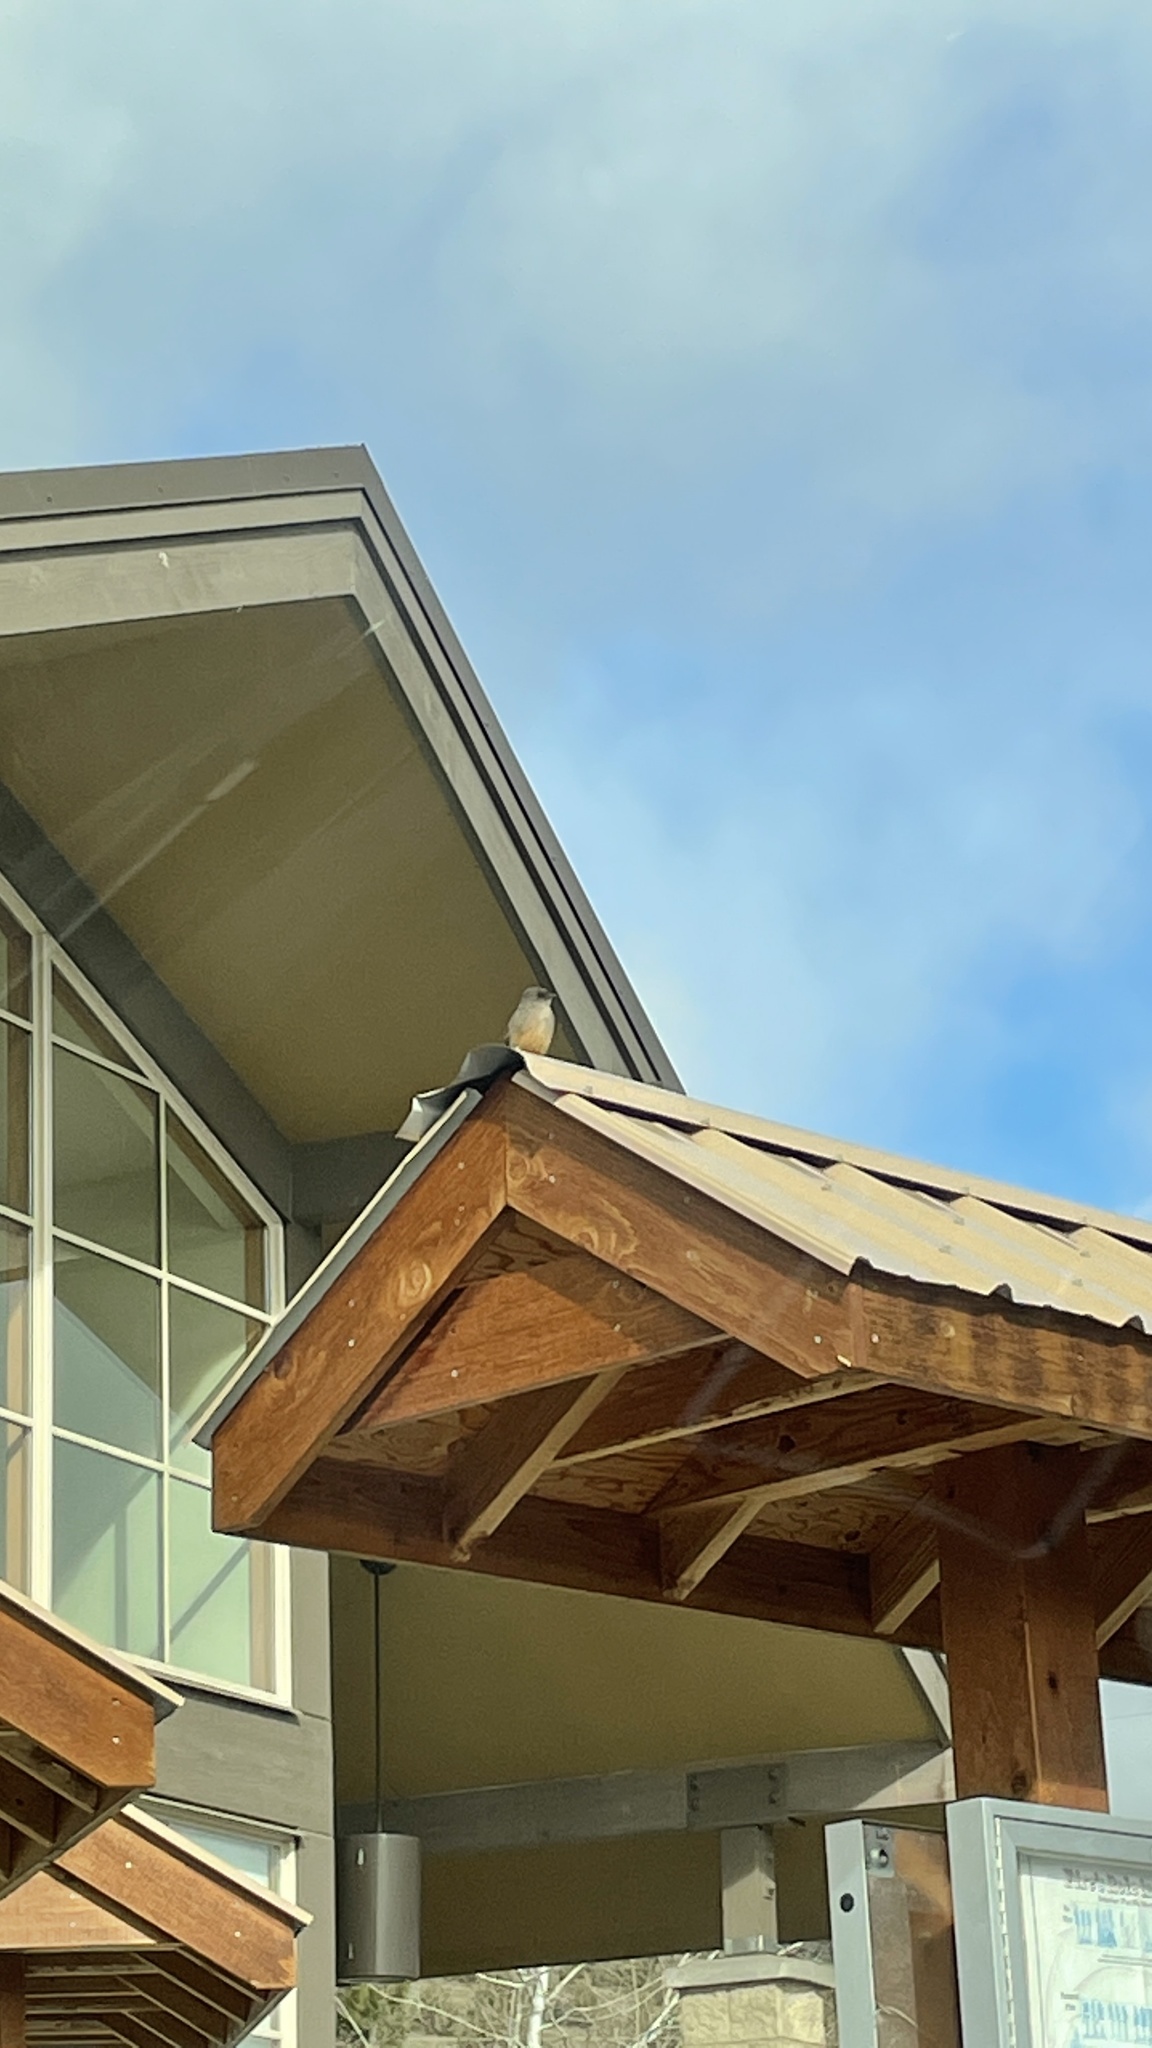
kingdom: Animalia
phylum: Chordata
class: Aves
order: Passeriformes
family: Tyrannidae
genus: Sayornis
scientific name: Sayornis saya
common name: Say's phoebe
